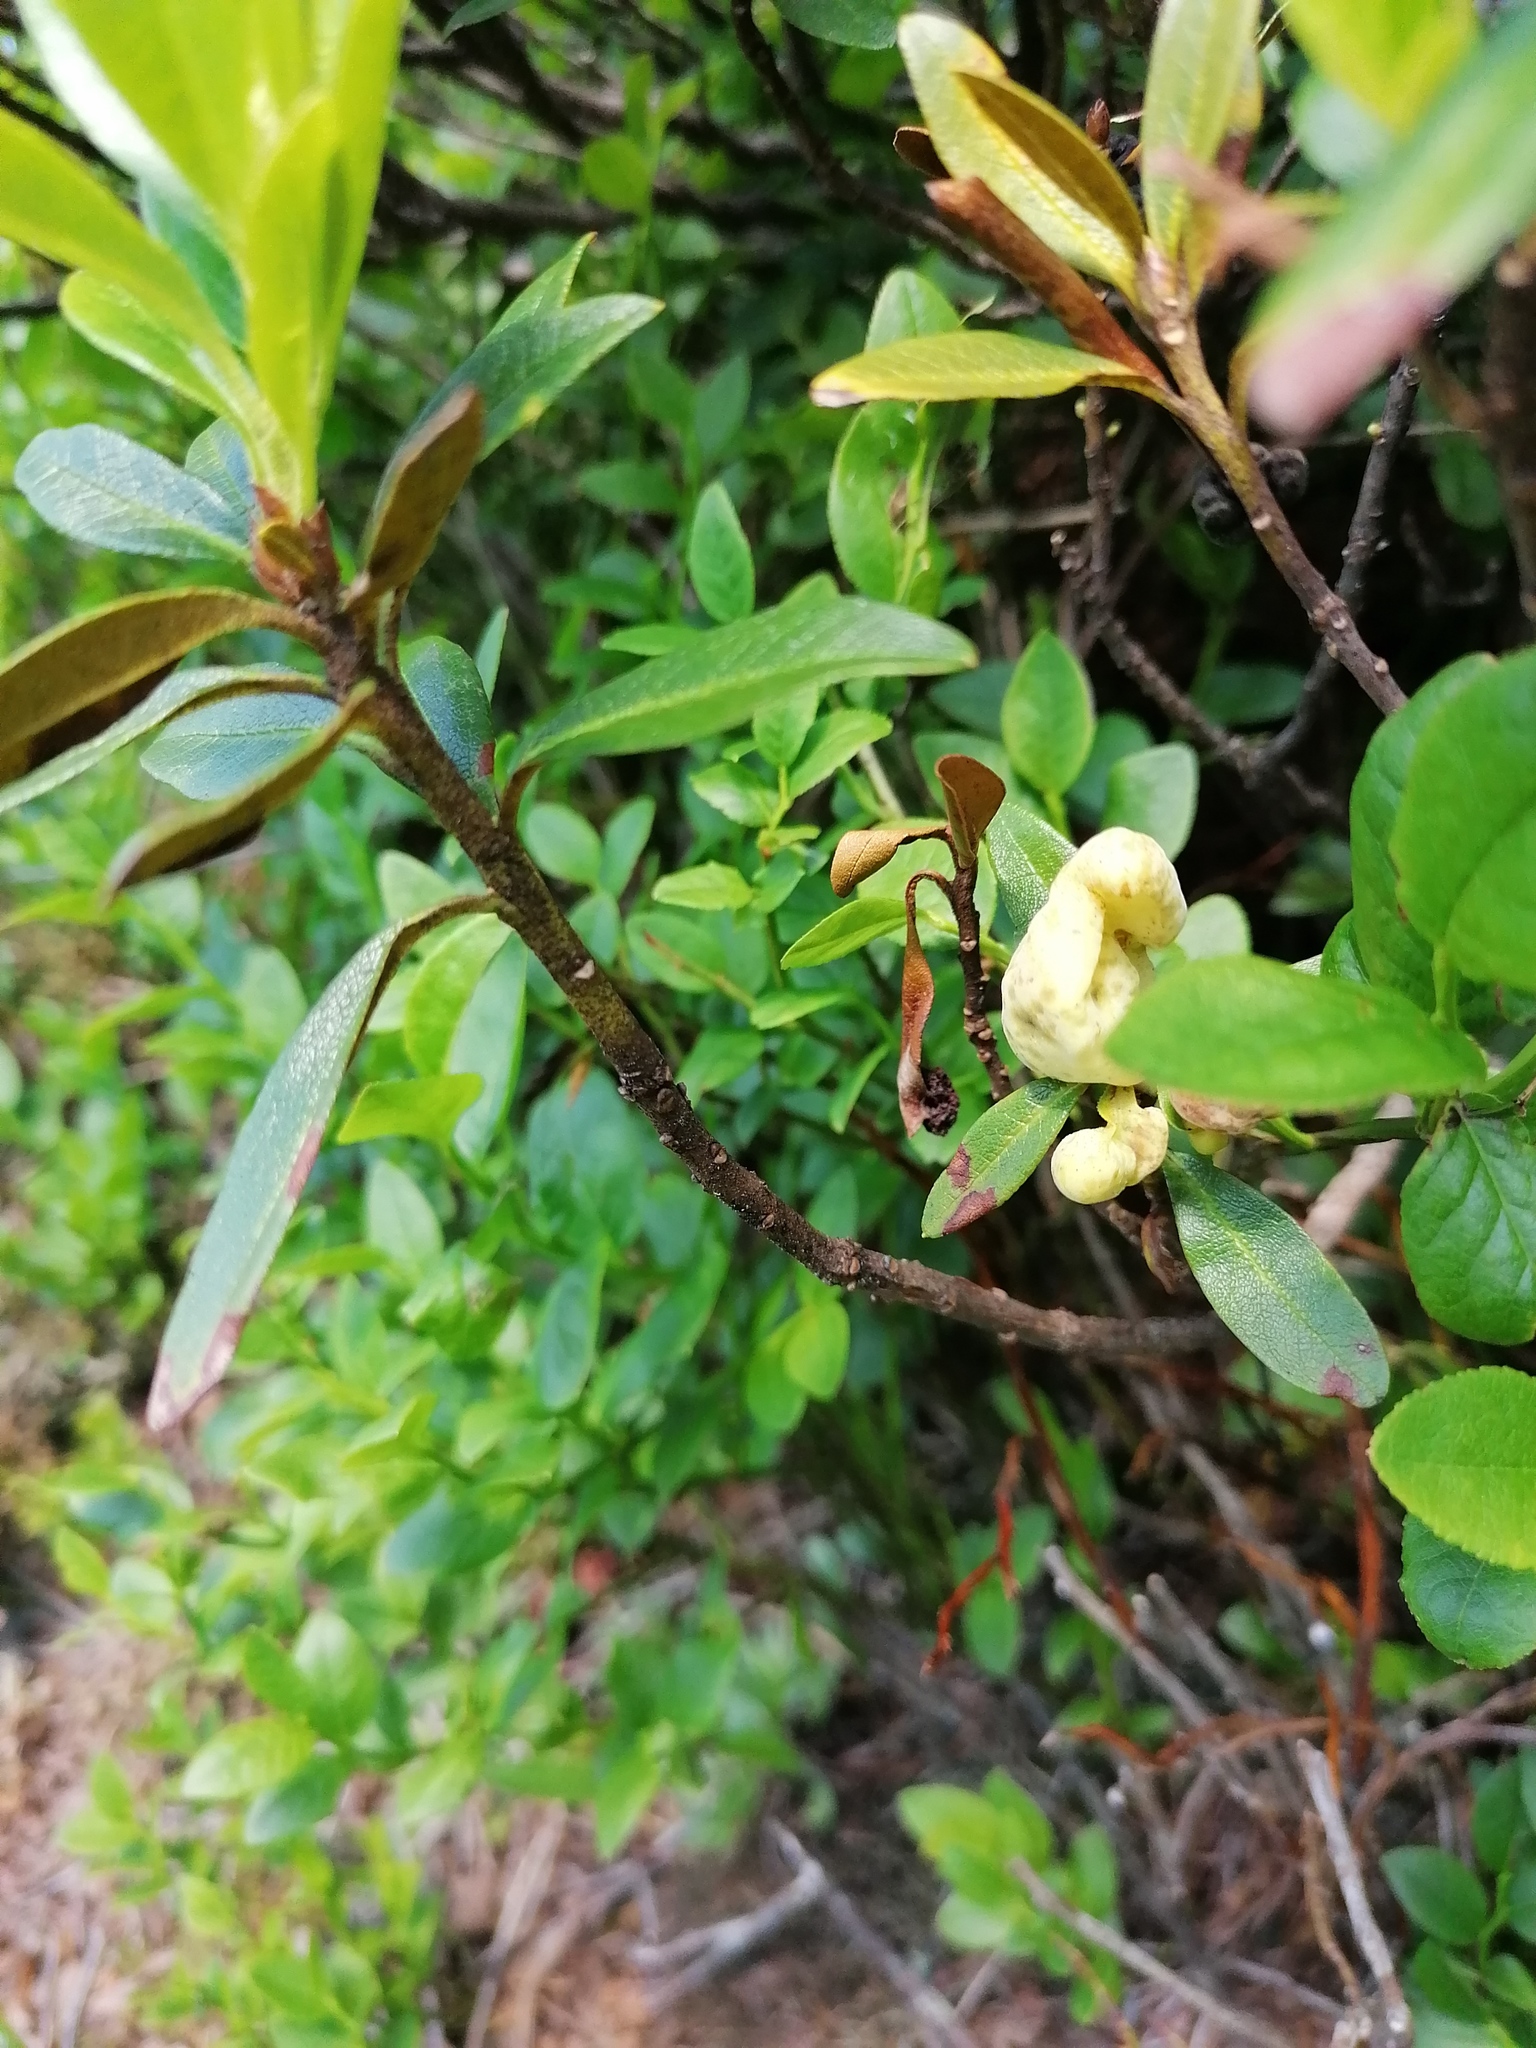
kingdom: Fungi
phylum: Basidiomycota
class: Exobasidiomycetes
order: Exobasidiales
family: Exobasidiaceae
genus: Exobasidium
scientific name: Exobasidium rhododendri
